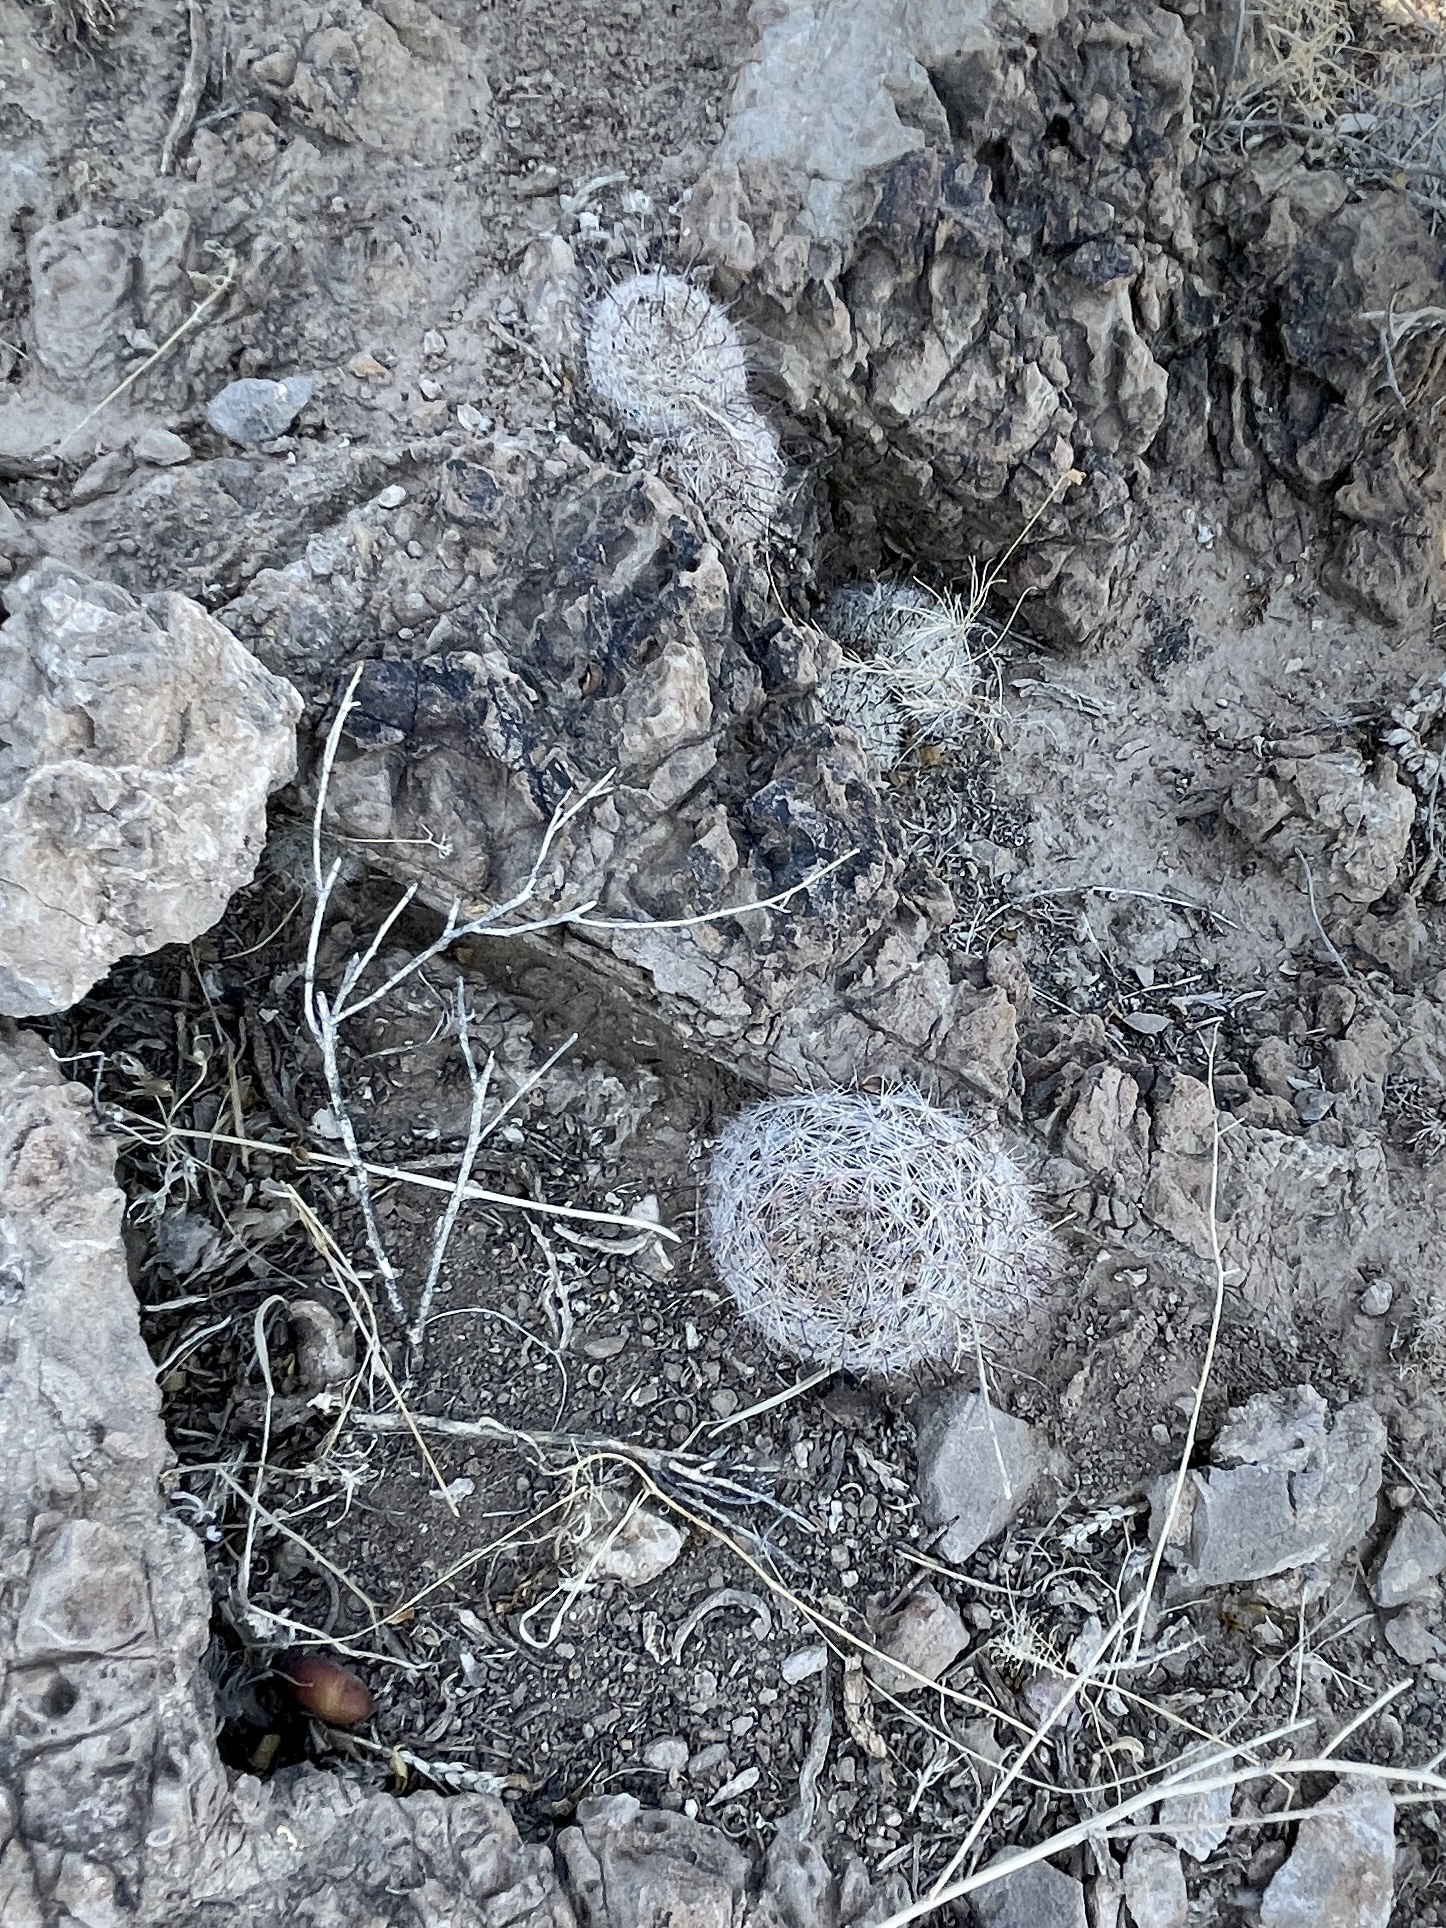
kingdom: Plantae
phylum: Tracheophyta
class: Magnoliopsida
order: Caryophyllales
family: Cactaceae
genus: Cochemiea
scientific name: Cochemiea grahamii
